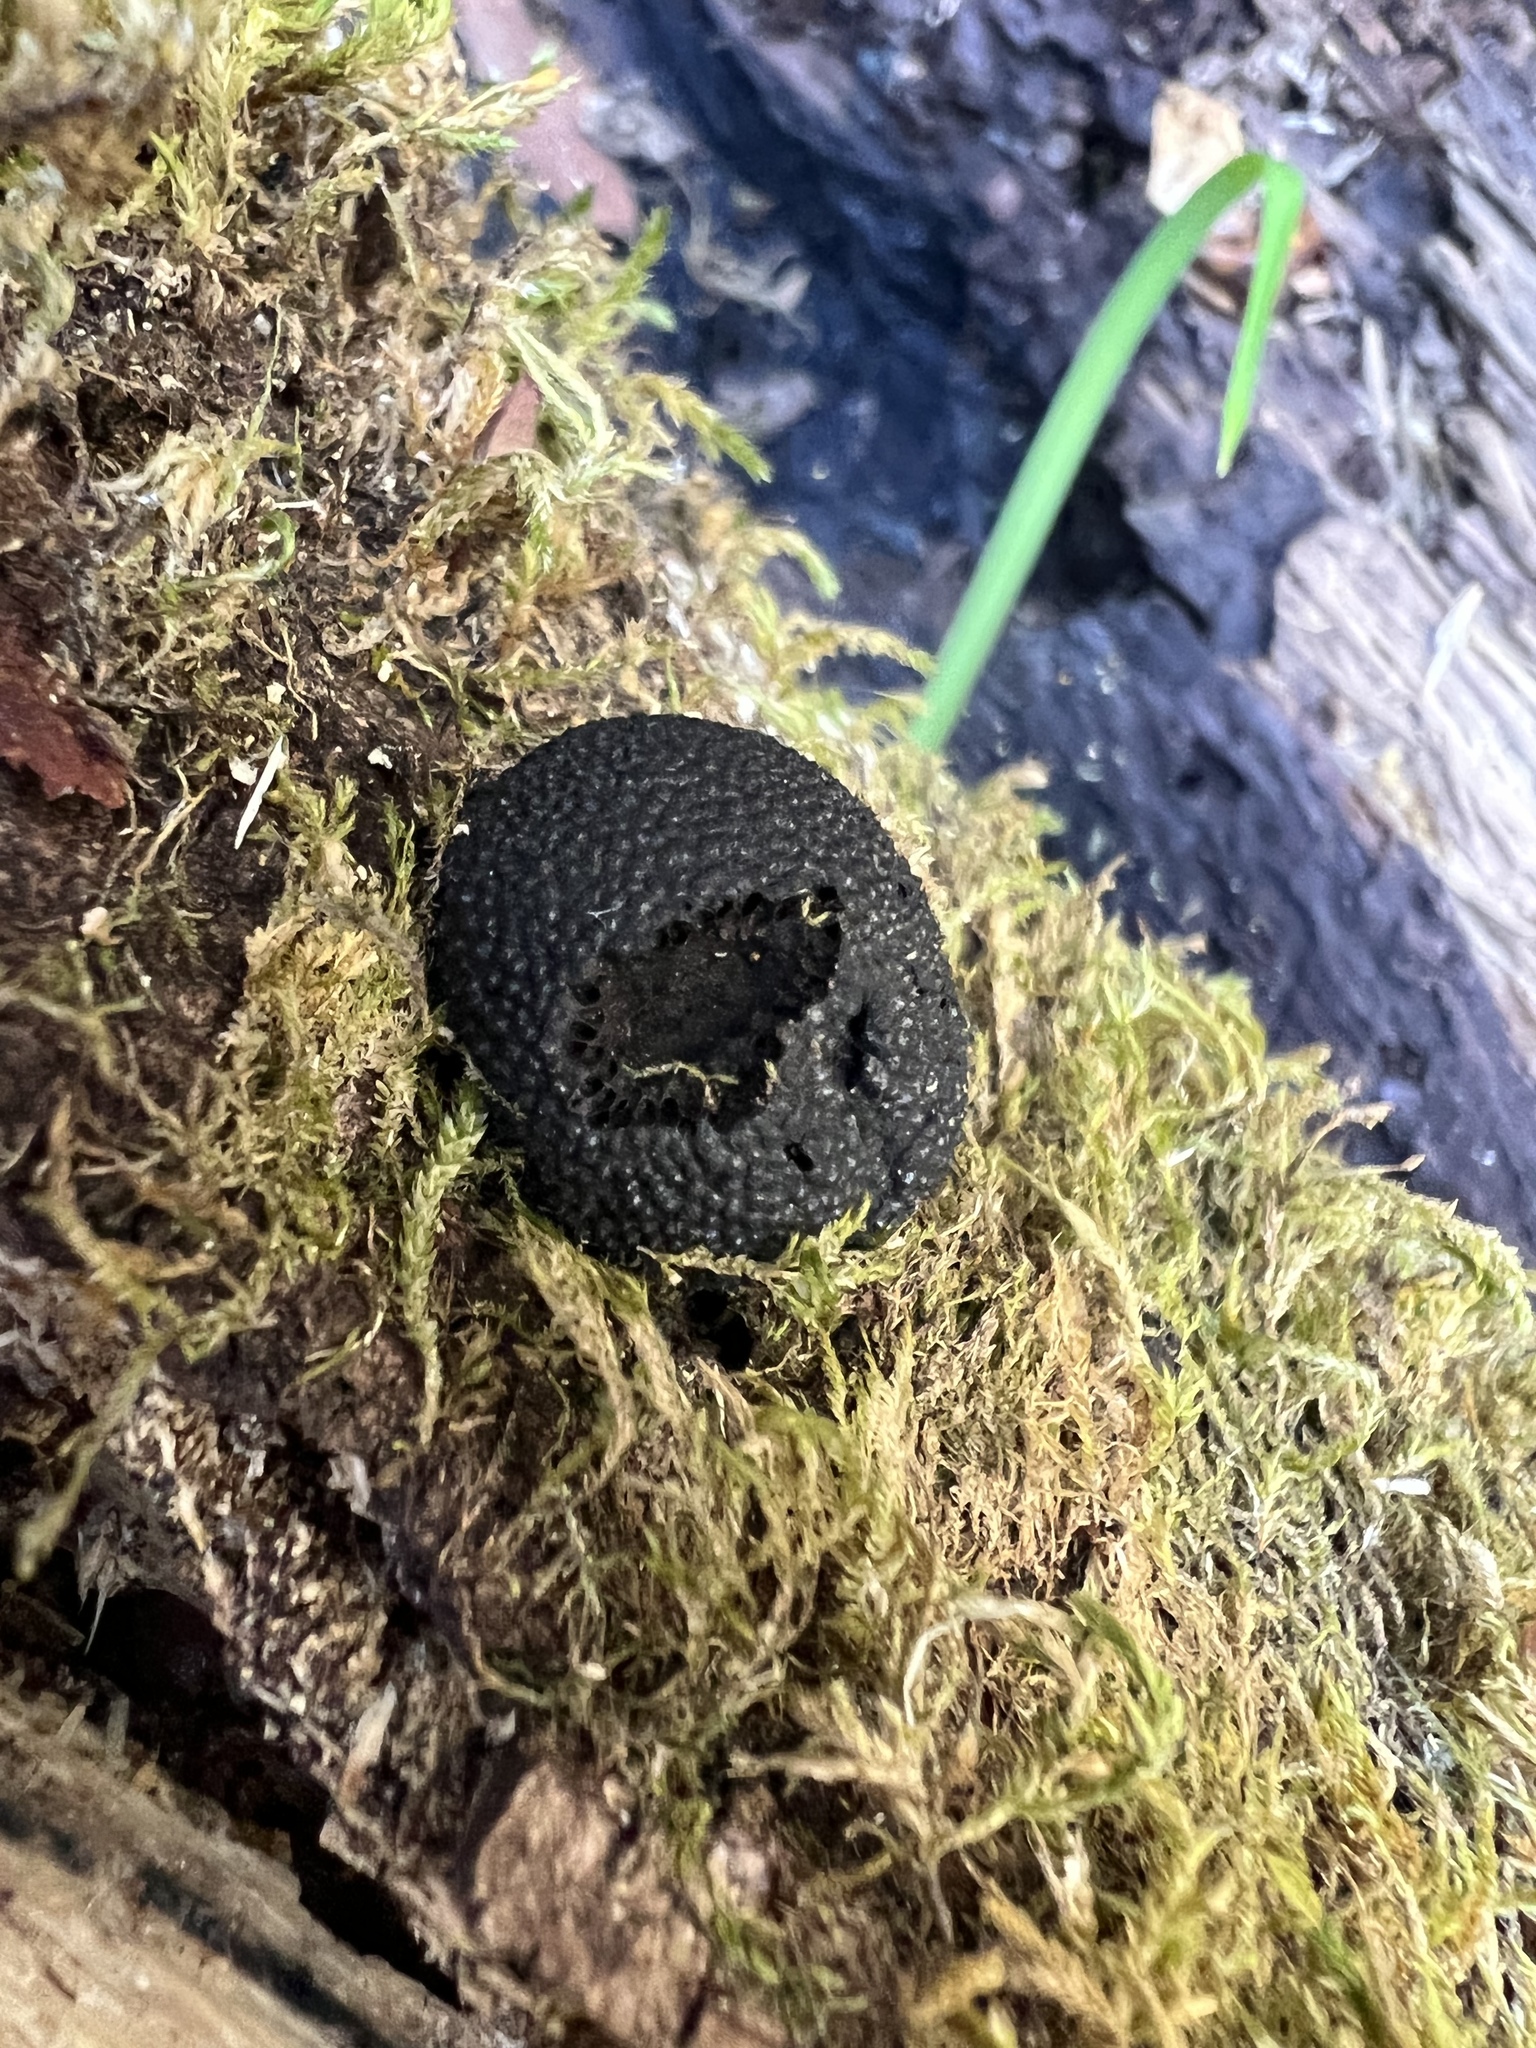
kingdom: Fungi
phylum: Ascomycota
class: Sordariomycetes
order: Xylariales
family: Hypoxylaceae
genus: Annulohypoxylon
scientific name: Annulohypoxylon thouarsianum
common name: Cramp balls
